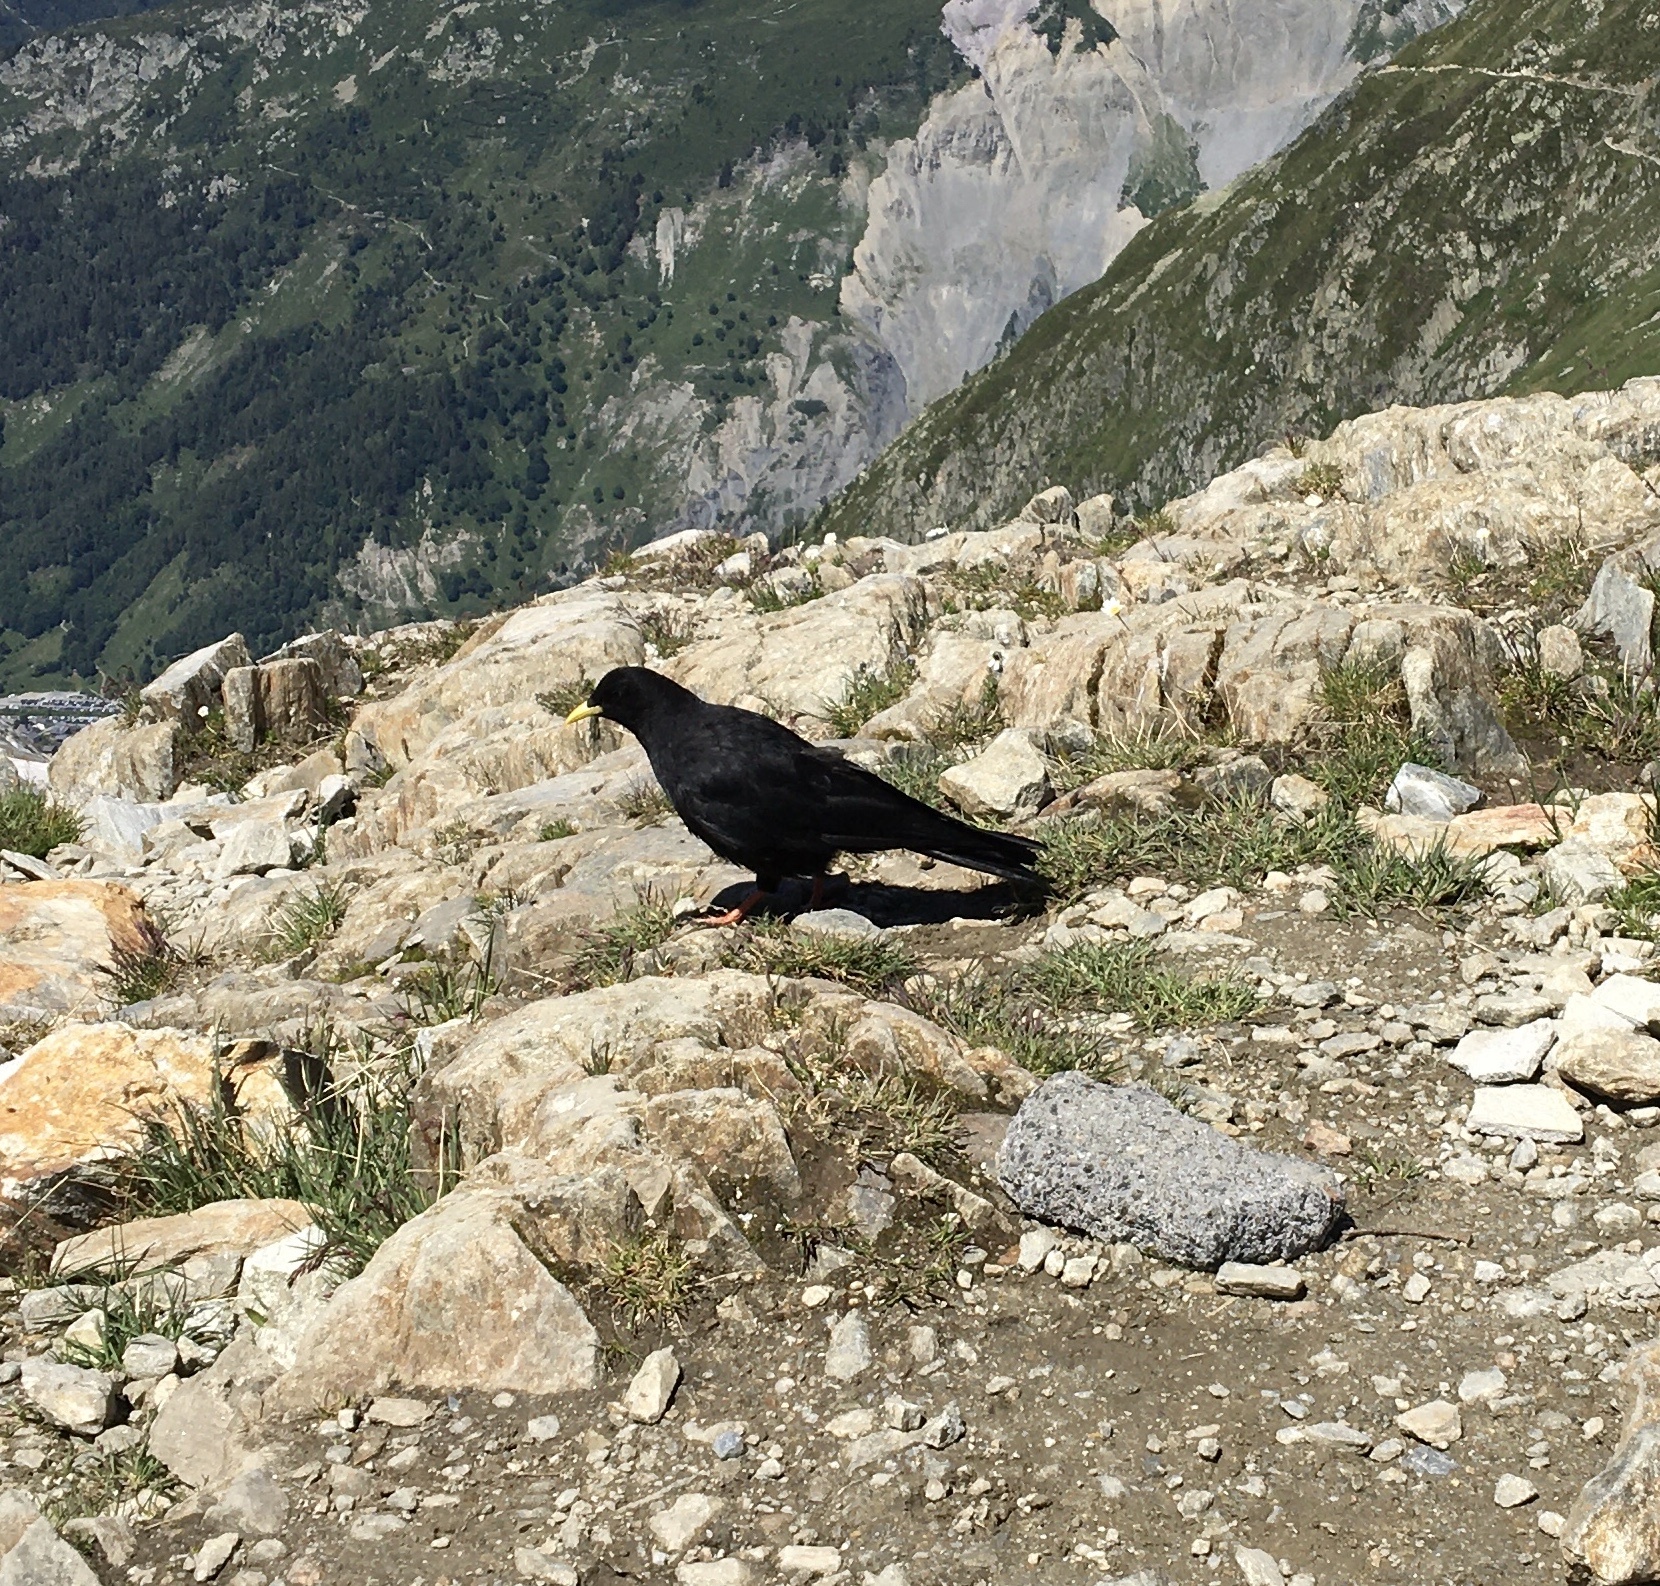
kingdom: Animalia
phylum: Chordata
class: Aves
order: Passeriformes
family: Corvidae
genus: Pyrrhocorax
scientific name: Pyrrhocorax graculus
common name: Alpine chough
